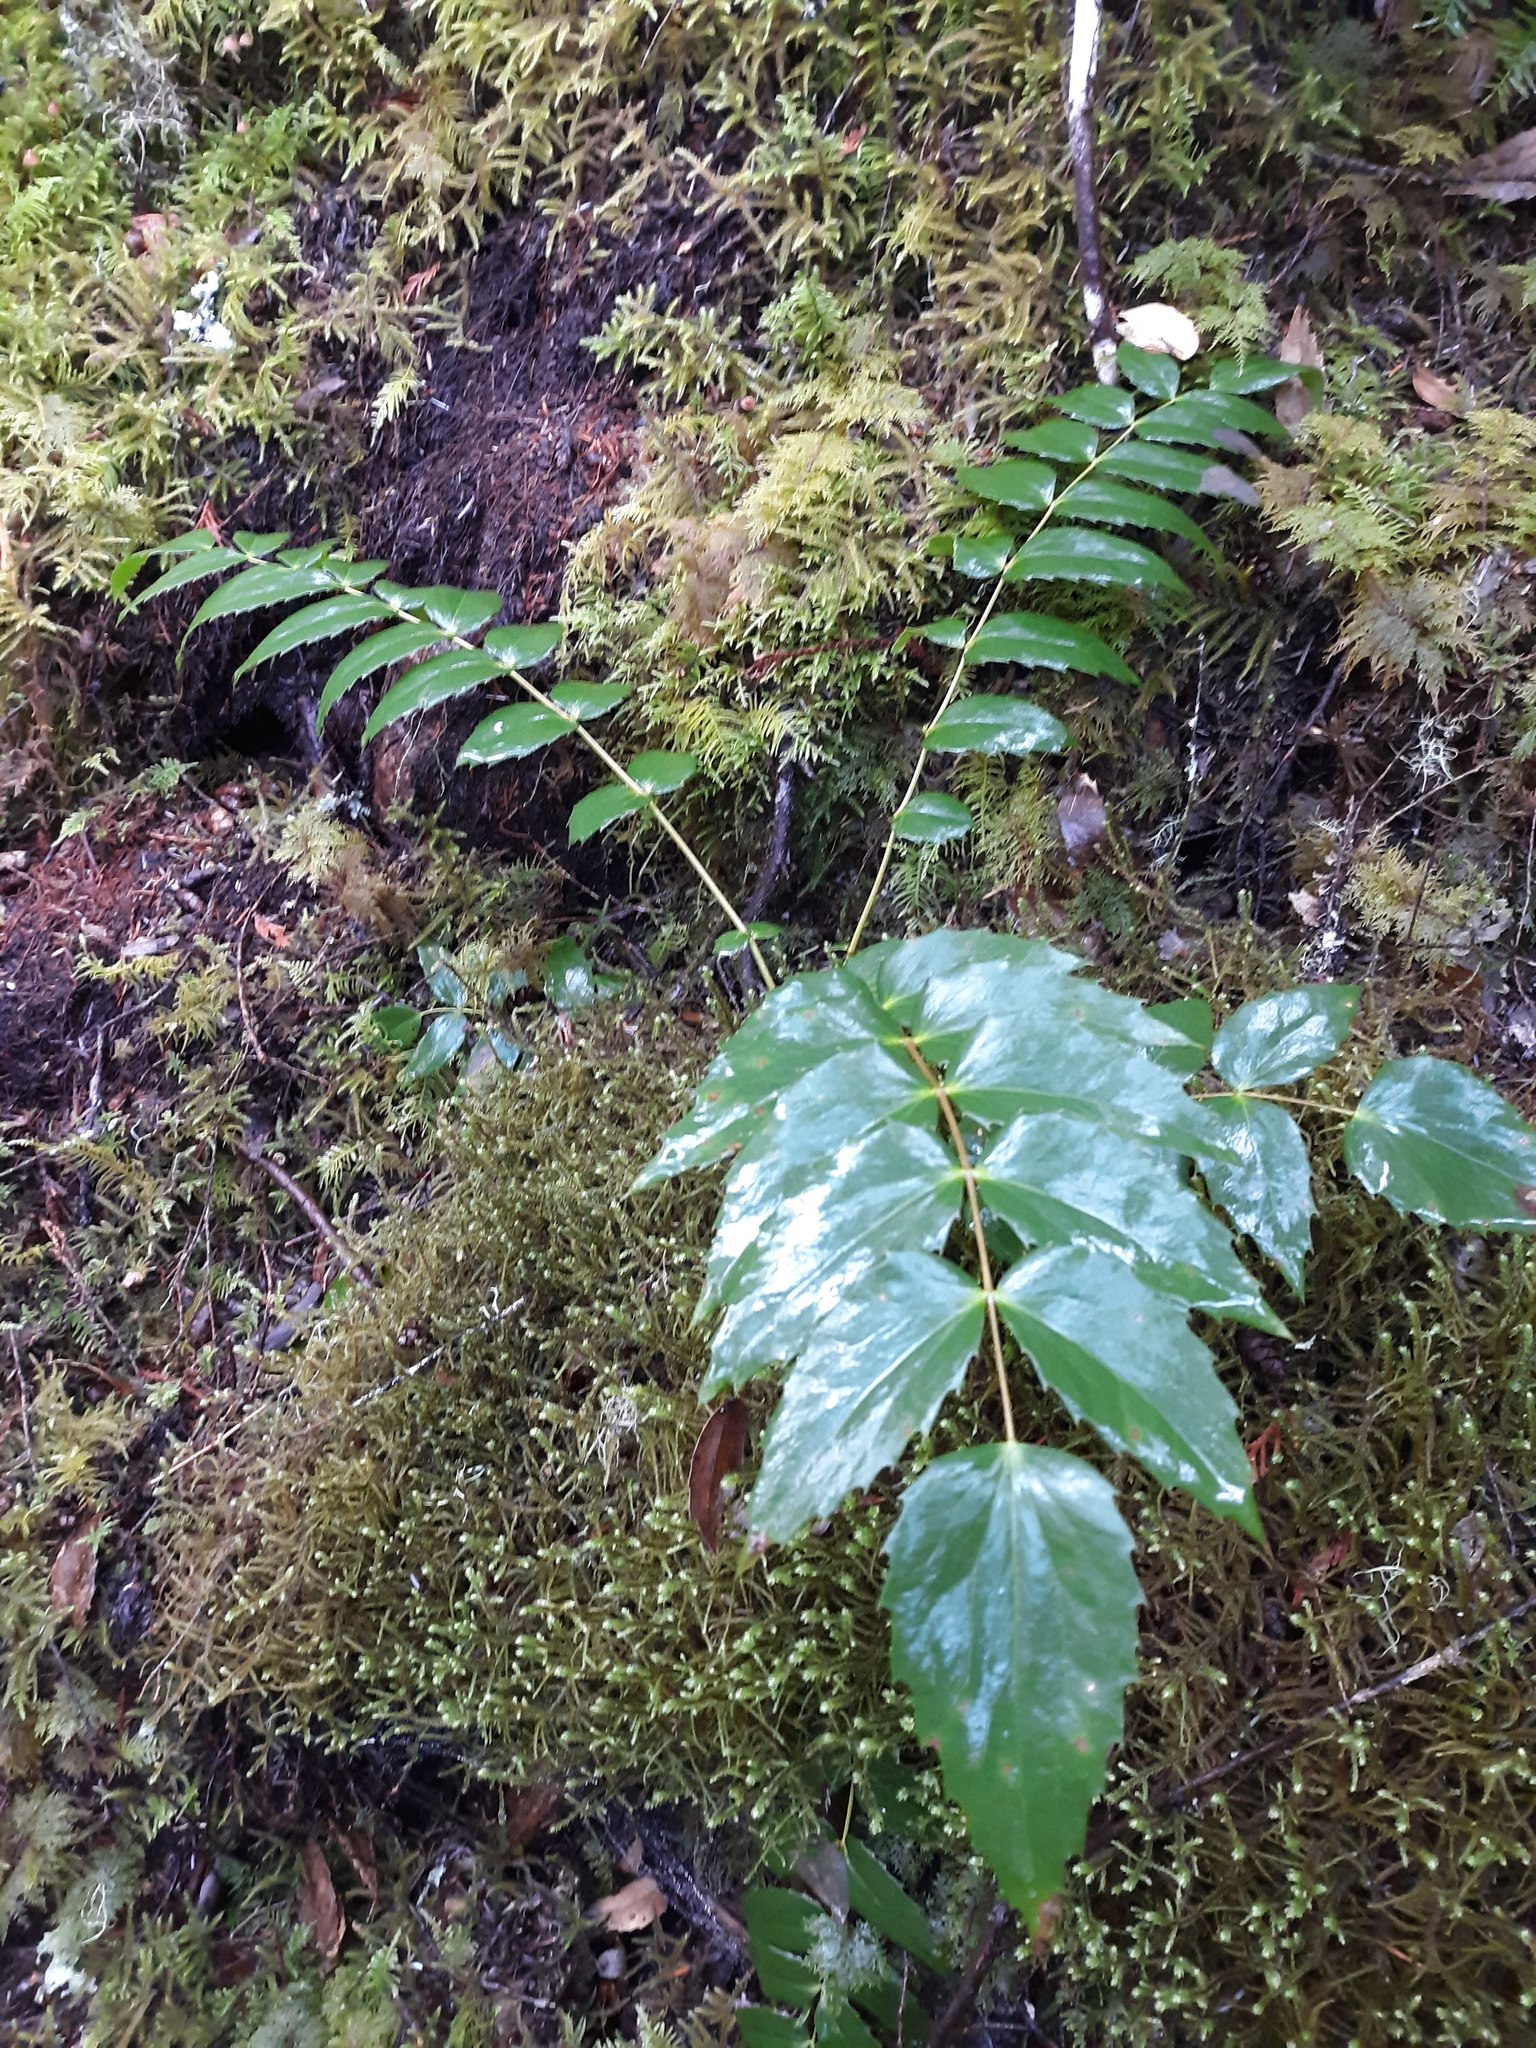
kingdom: Plantae
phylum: Tracheophyta
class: Magnoliopsida
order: Ranunculales
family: Berberidaceae
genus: Mahonia
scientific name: Mahonia nervosa
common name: Cascade oregon-grape
